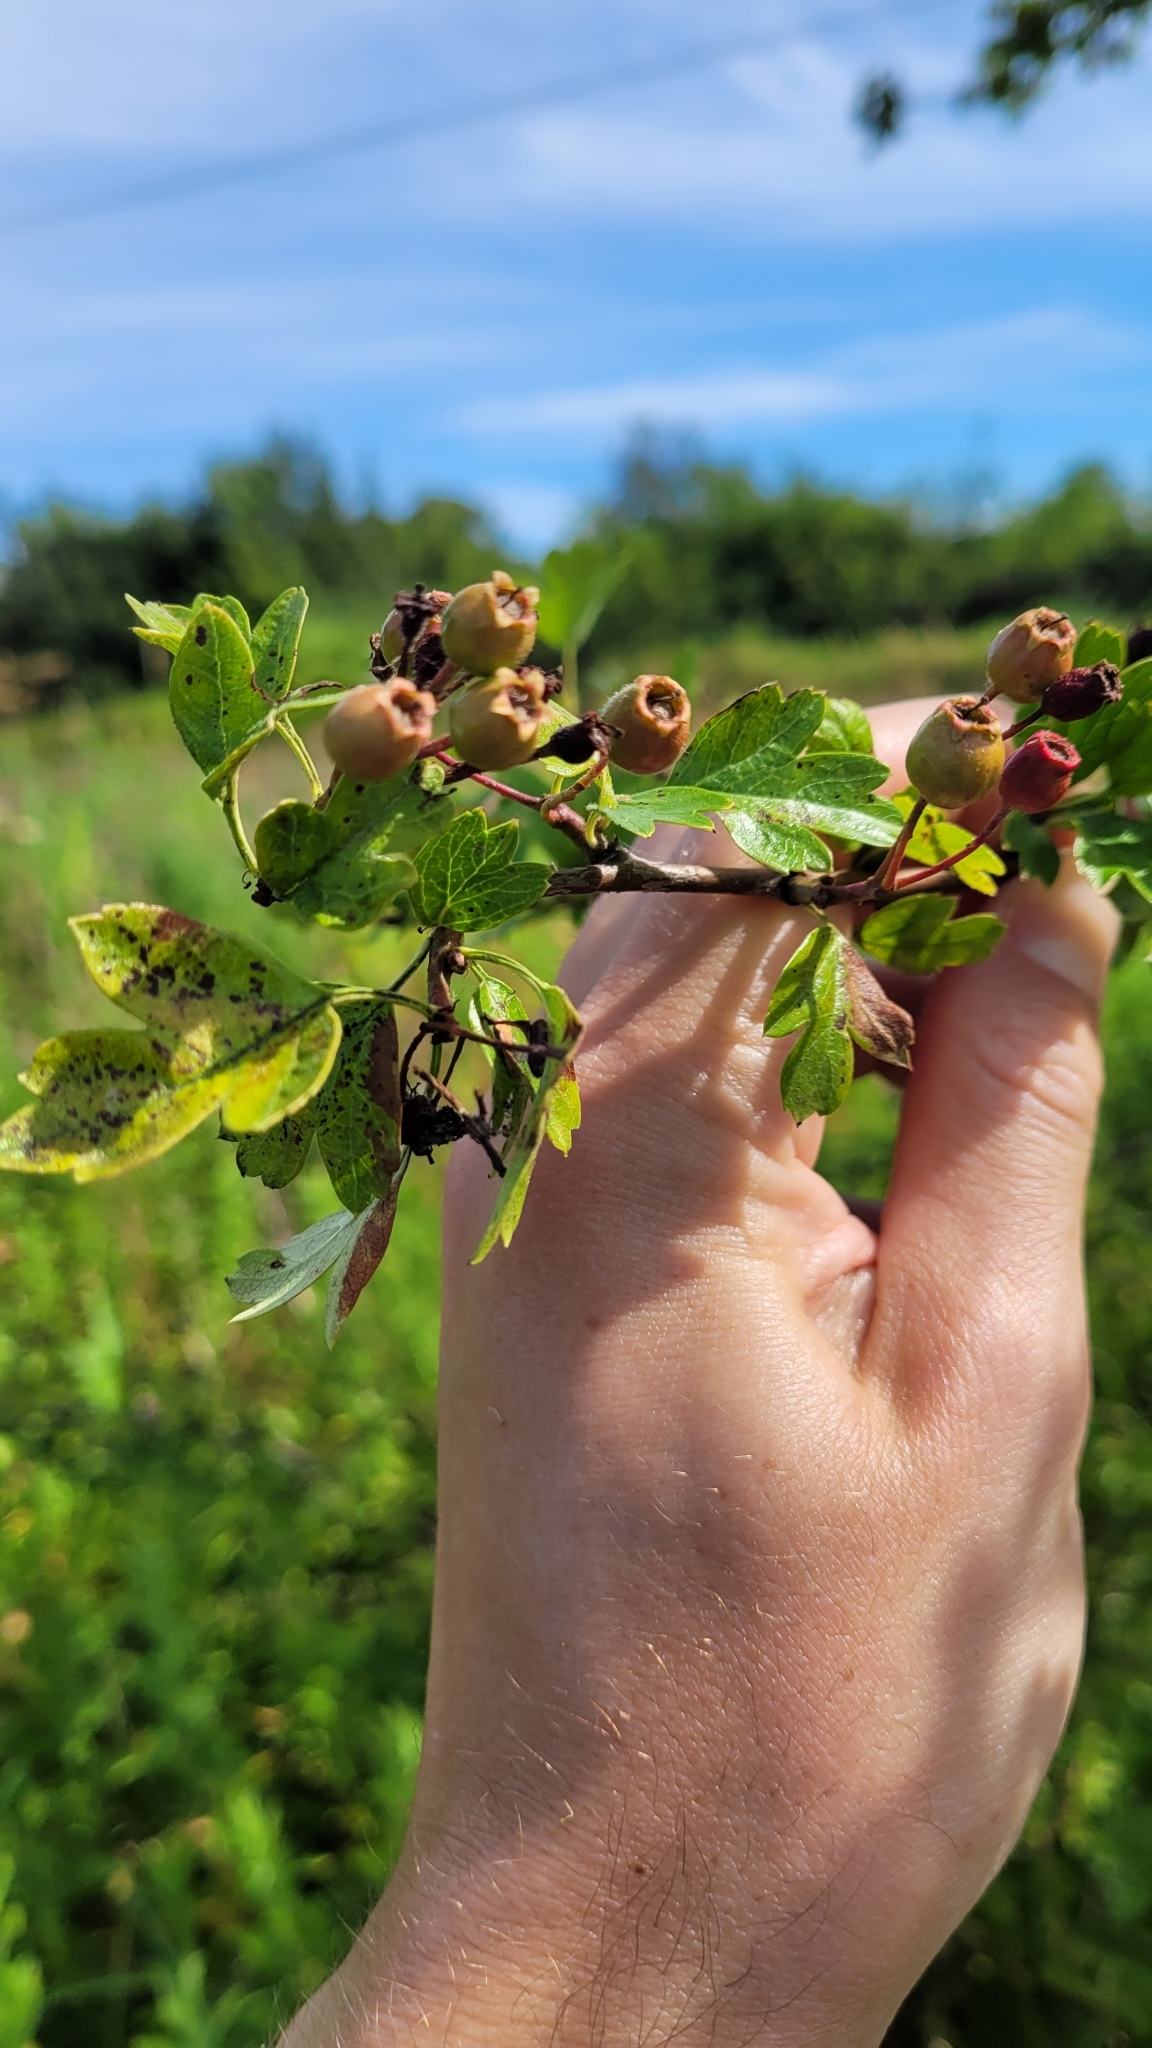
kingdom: Plantae
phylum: Tracheophyta
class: Magnoliopsida
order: Rosales
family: Rosaceae
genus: Crataegus
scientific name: Crataegus monogyna
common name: Hawthorn
